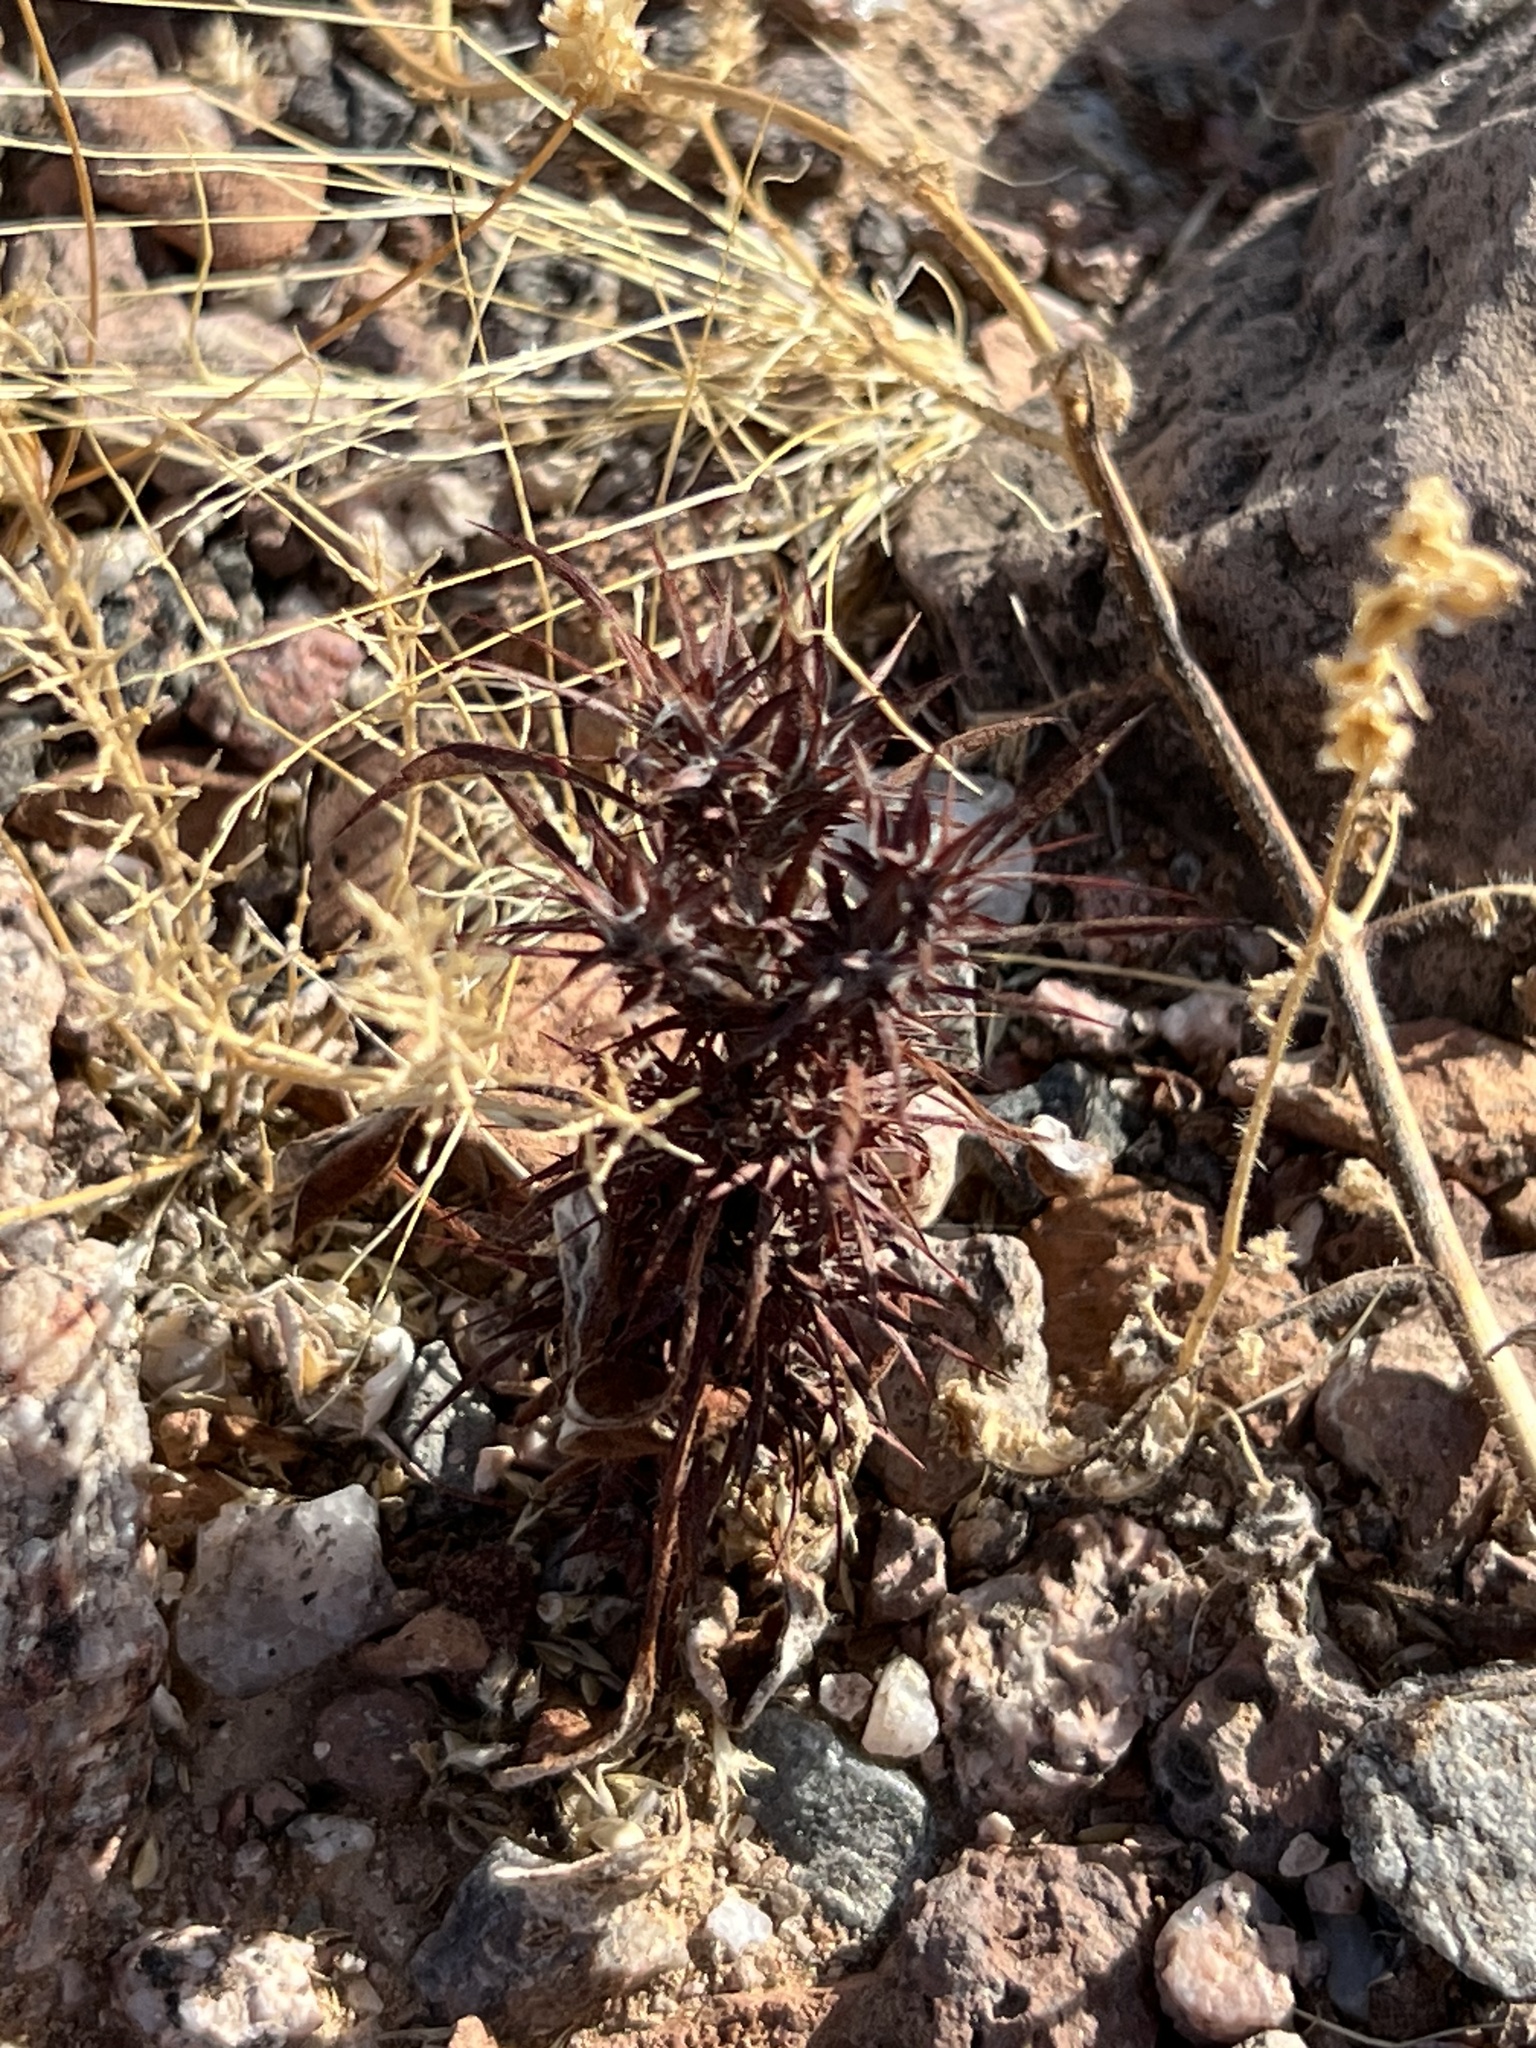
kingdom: Plantae
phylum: Tracheophyta
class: Magnoliopsida
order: Caryophyllales
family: Polygonaceae
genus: Chorizanthe
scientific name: Chorizanthe rigida
